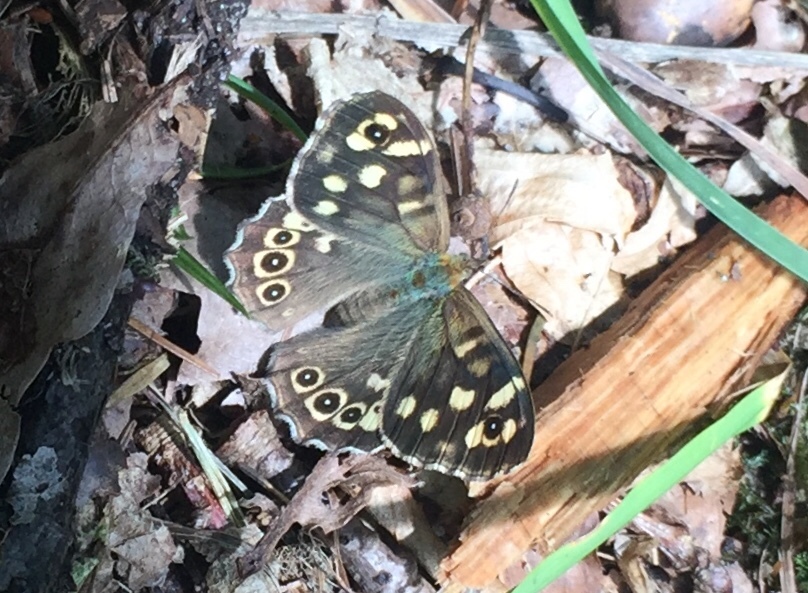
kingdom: Animalia
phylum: Arthropoda
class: Insecta
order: Lepidoptera
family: Nymphalidae
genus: Pararge
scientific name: Pararge aegeria
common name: Speckled wood
